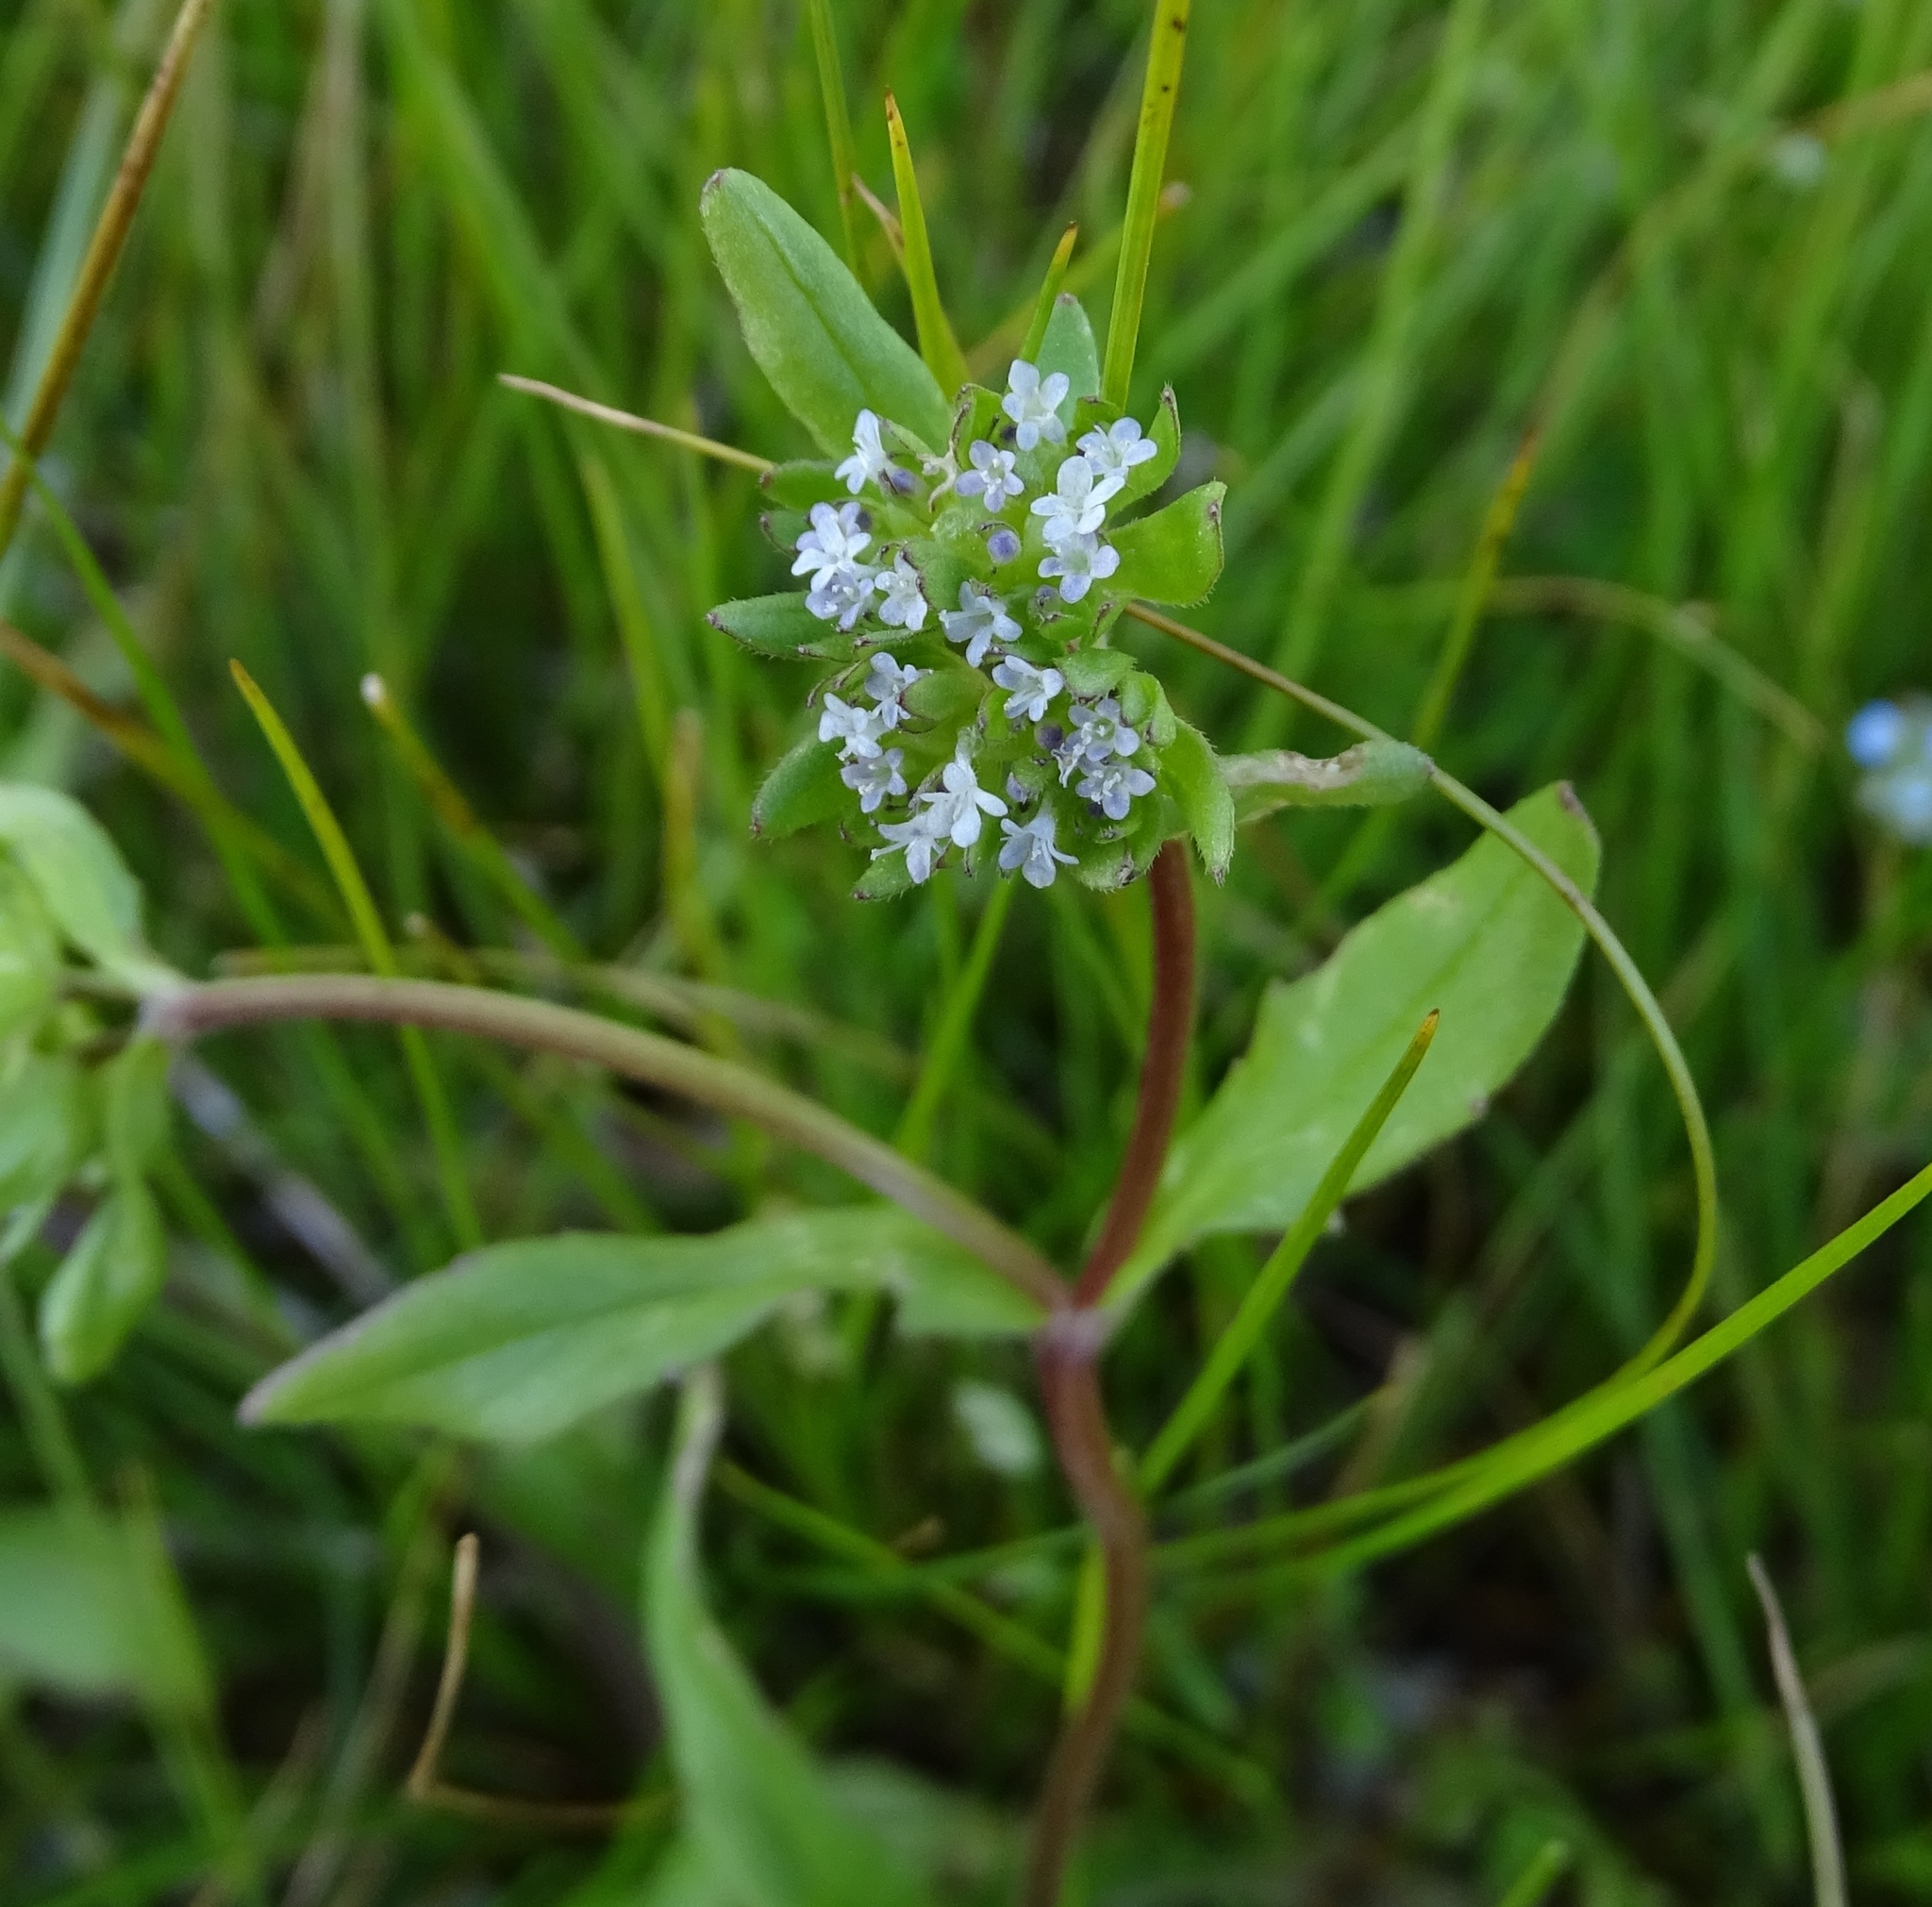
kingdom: Plantae
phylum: Tracheophyta
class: Magnoliopsida
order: Dipsacales
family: Caprifoliaceae
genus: Valerianella
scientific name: Valerianella locusta
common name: Common cornsalad
